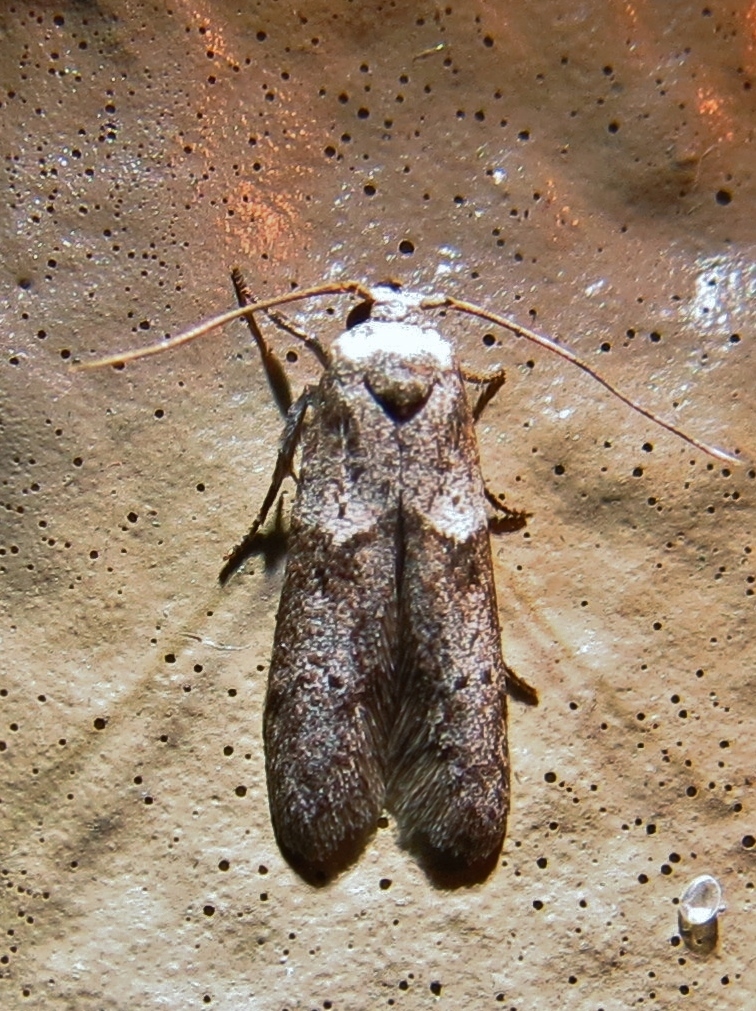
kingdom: Animalia
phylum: Arthropoda
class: Insecta
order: Lepidoptera
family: Blastobasidae
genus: Blastobasis
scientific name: Blastobasis glandulella
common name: Acorn moth
